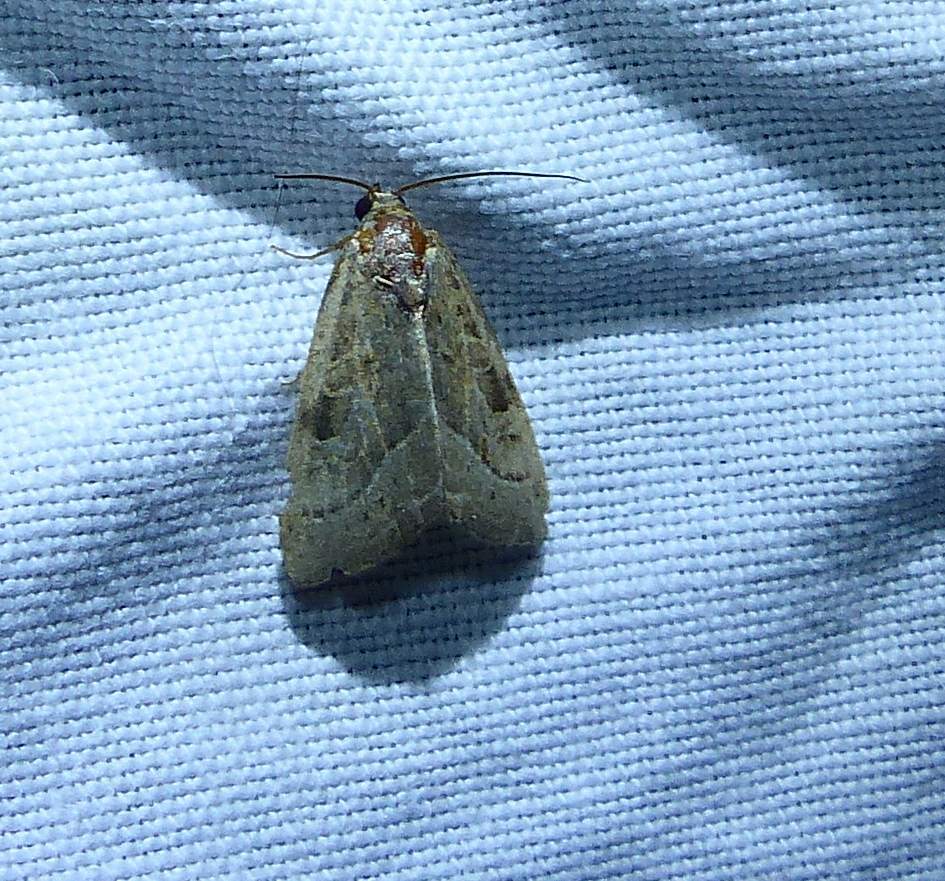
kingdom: Animalia
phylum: Arthropoda
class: Insecta
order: Lepidoptera
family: Noctuidae
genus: Galgula
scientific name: Galgula partita
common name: Wedgeling
